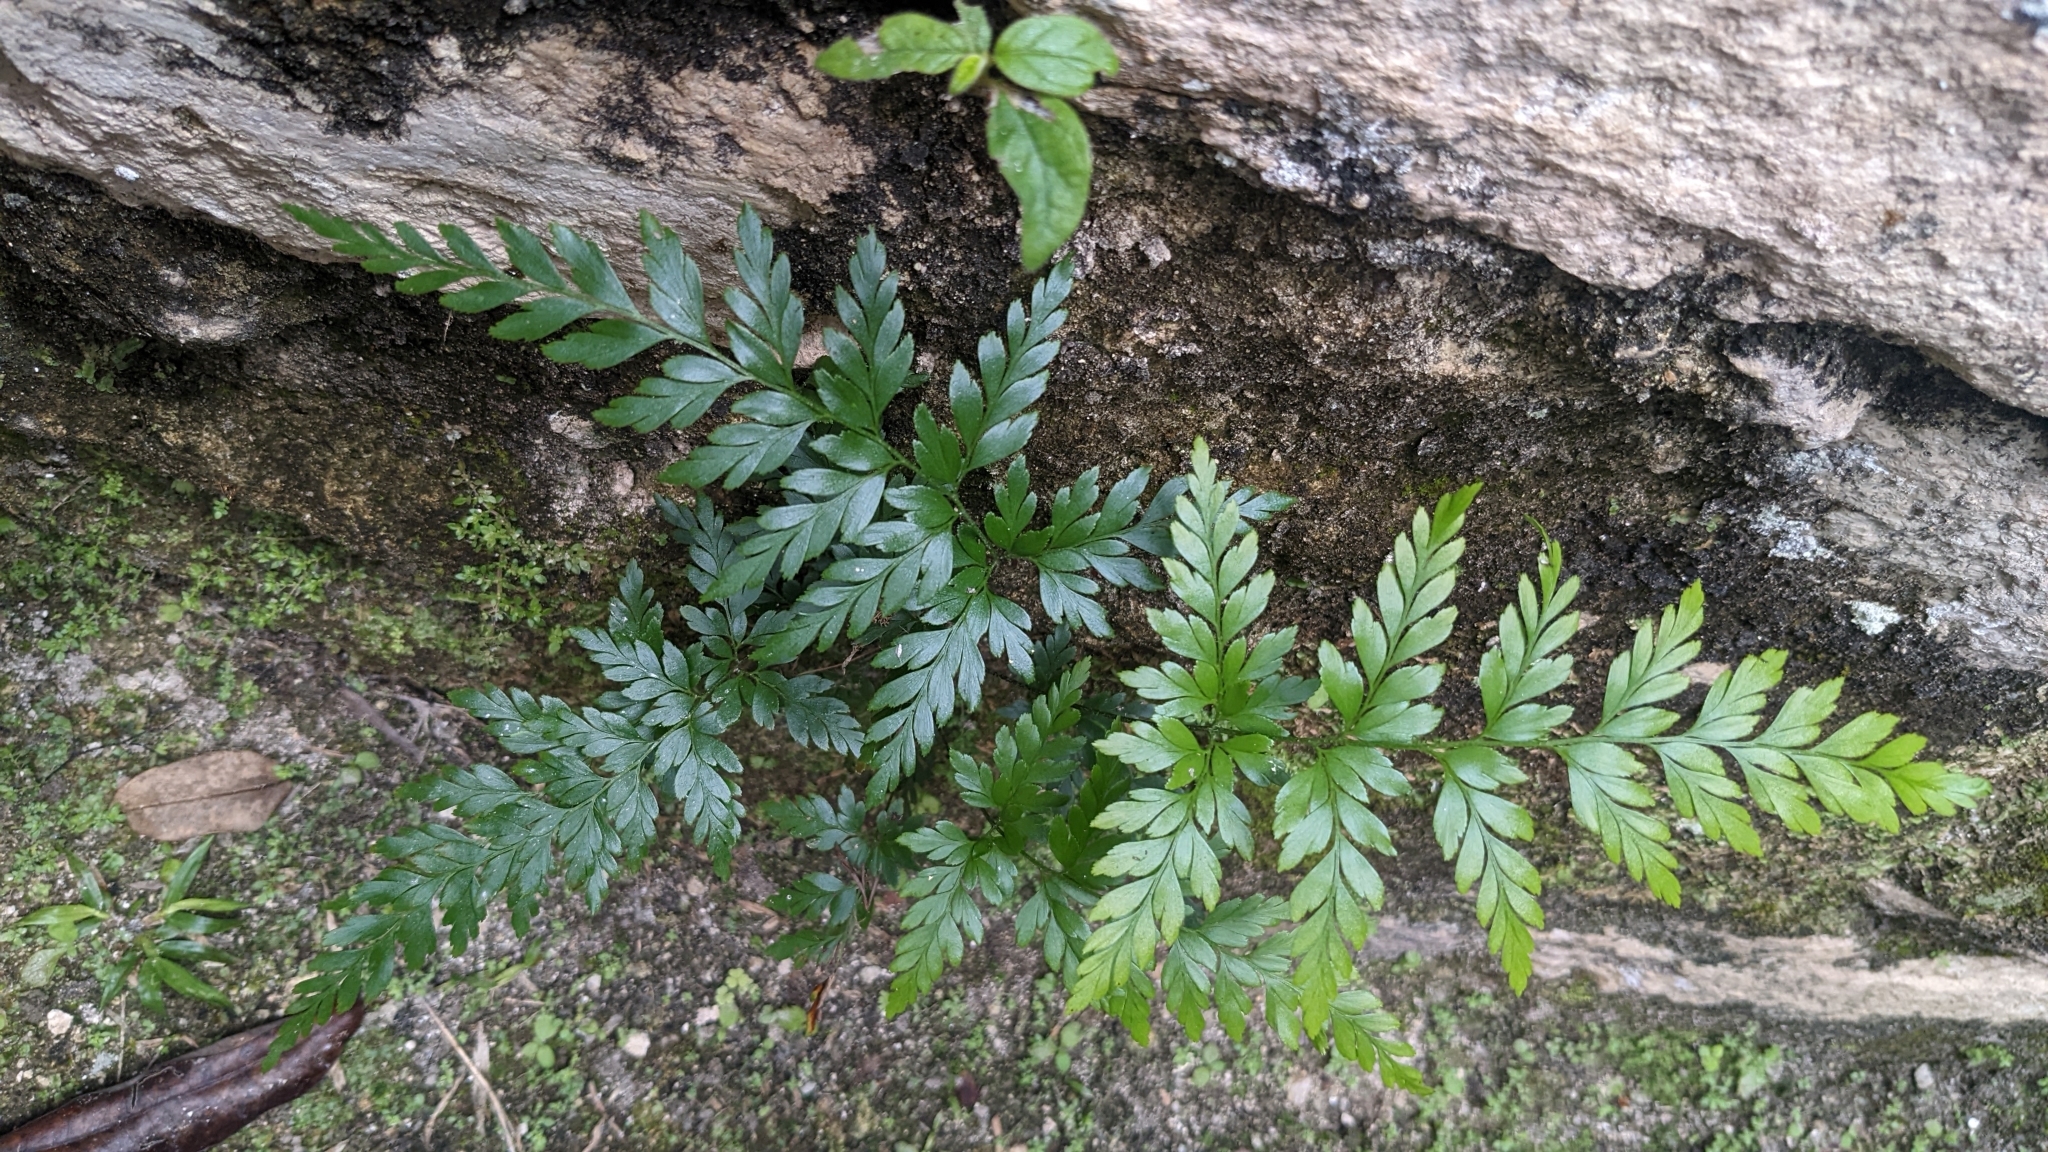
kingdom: Plantae
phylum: Tracheophyta
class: Polypodiopsida
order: Schizaeales
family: Anemiaceae
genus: Anemia
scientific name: Anemia adiantifolia
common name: Pine fern
